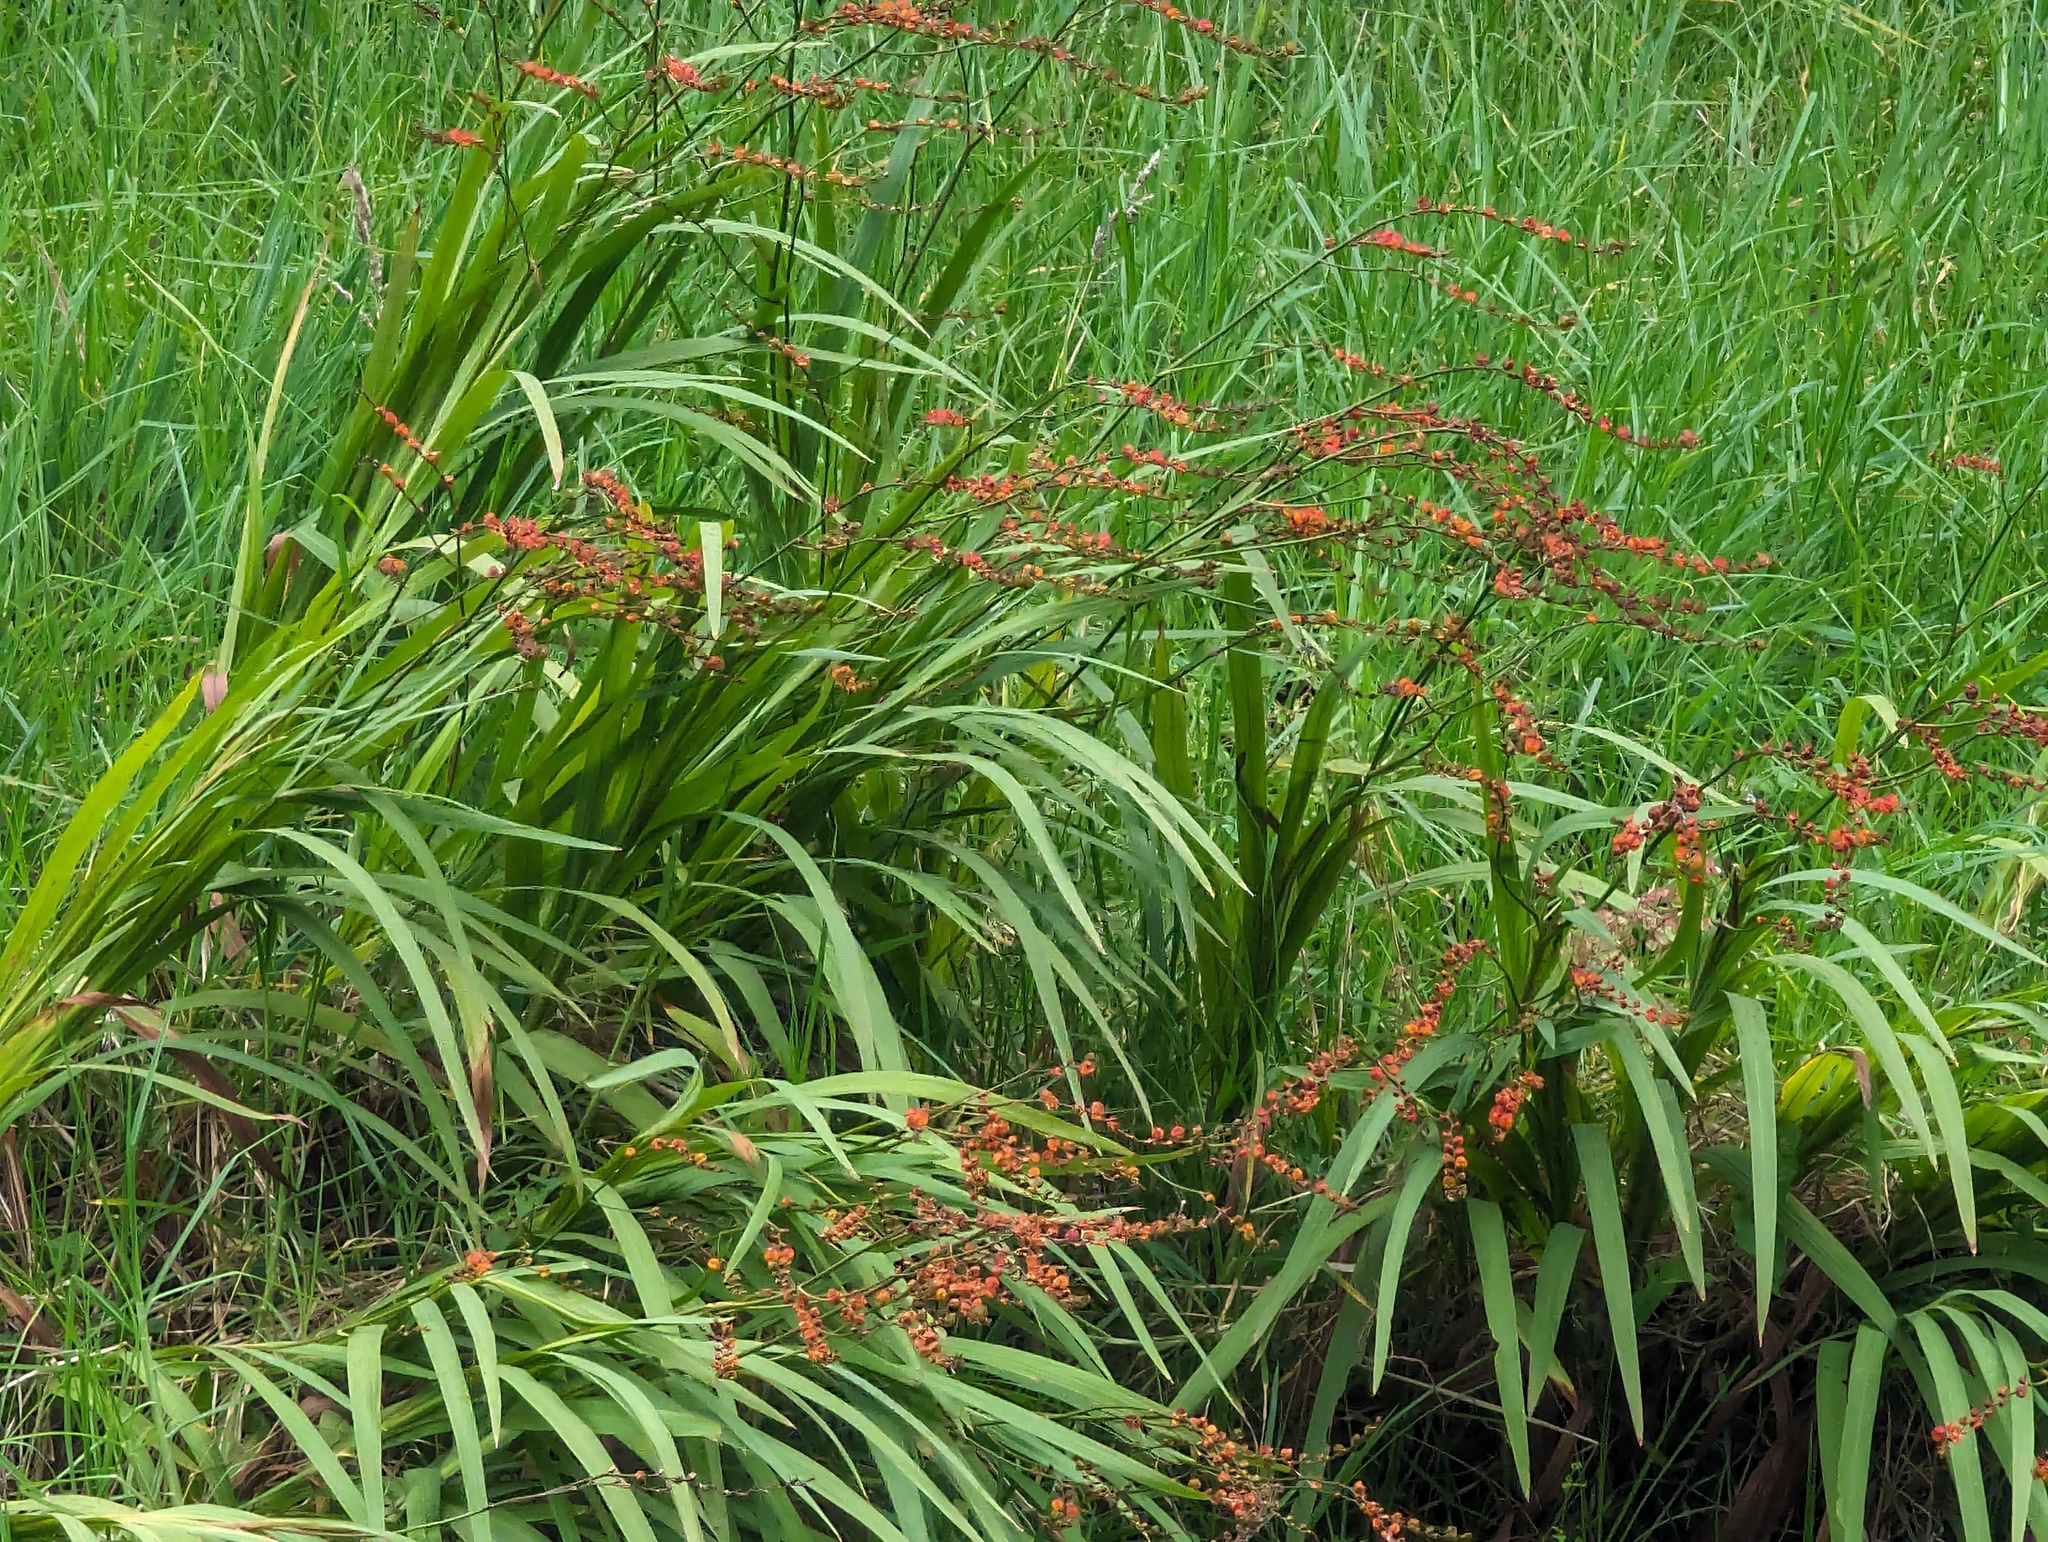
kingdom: Plantae
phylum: Tracheophyta
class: Liliopsida
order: Asparagales
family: Iridaceae
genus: Crocosmia
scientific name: Crocosmia crocosmiiflora
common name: Montbretia
